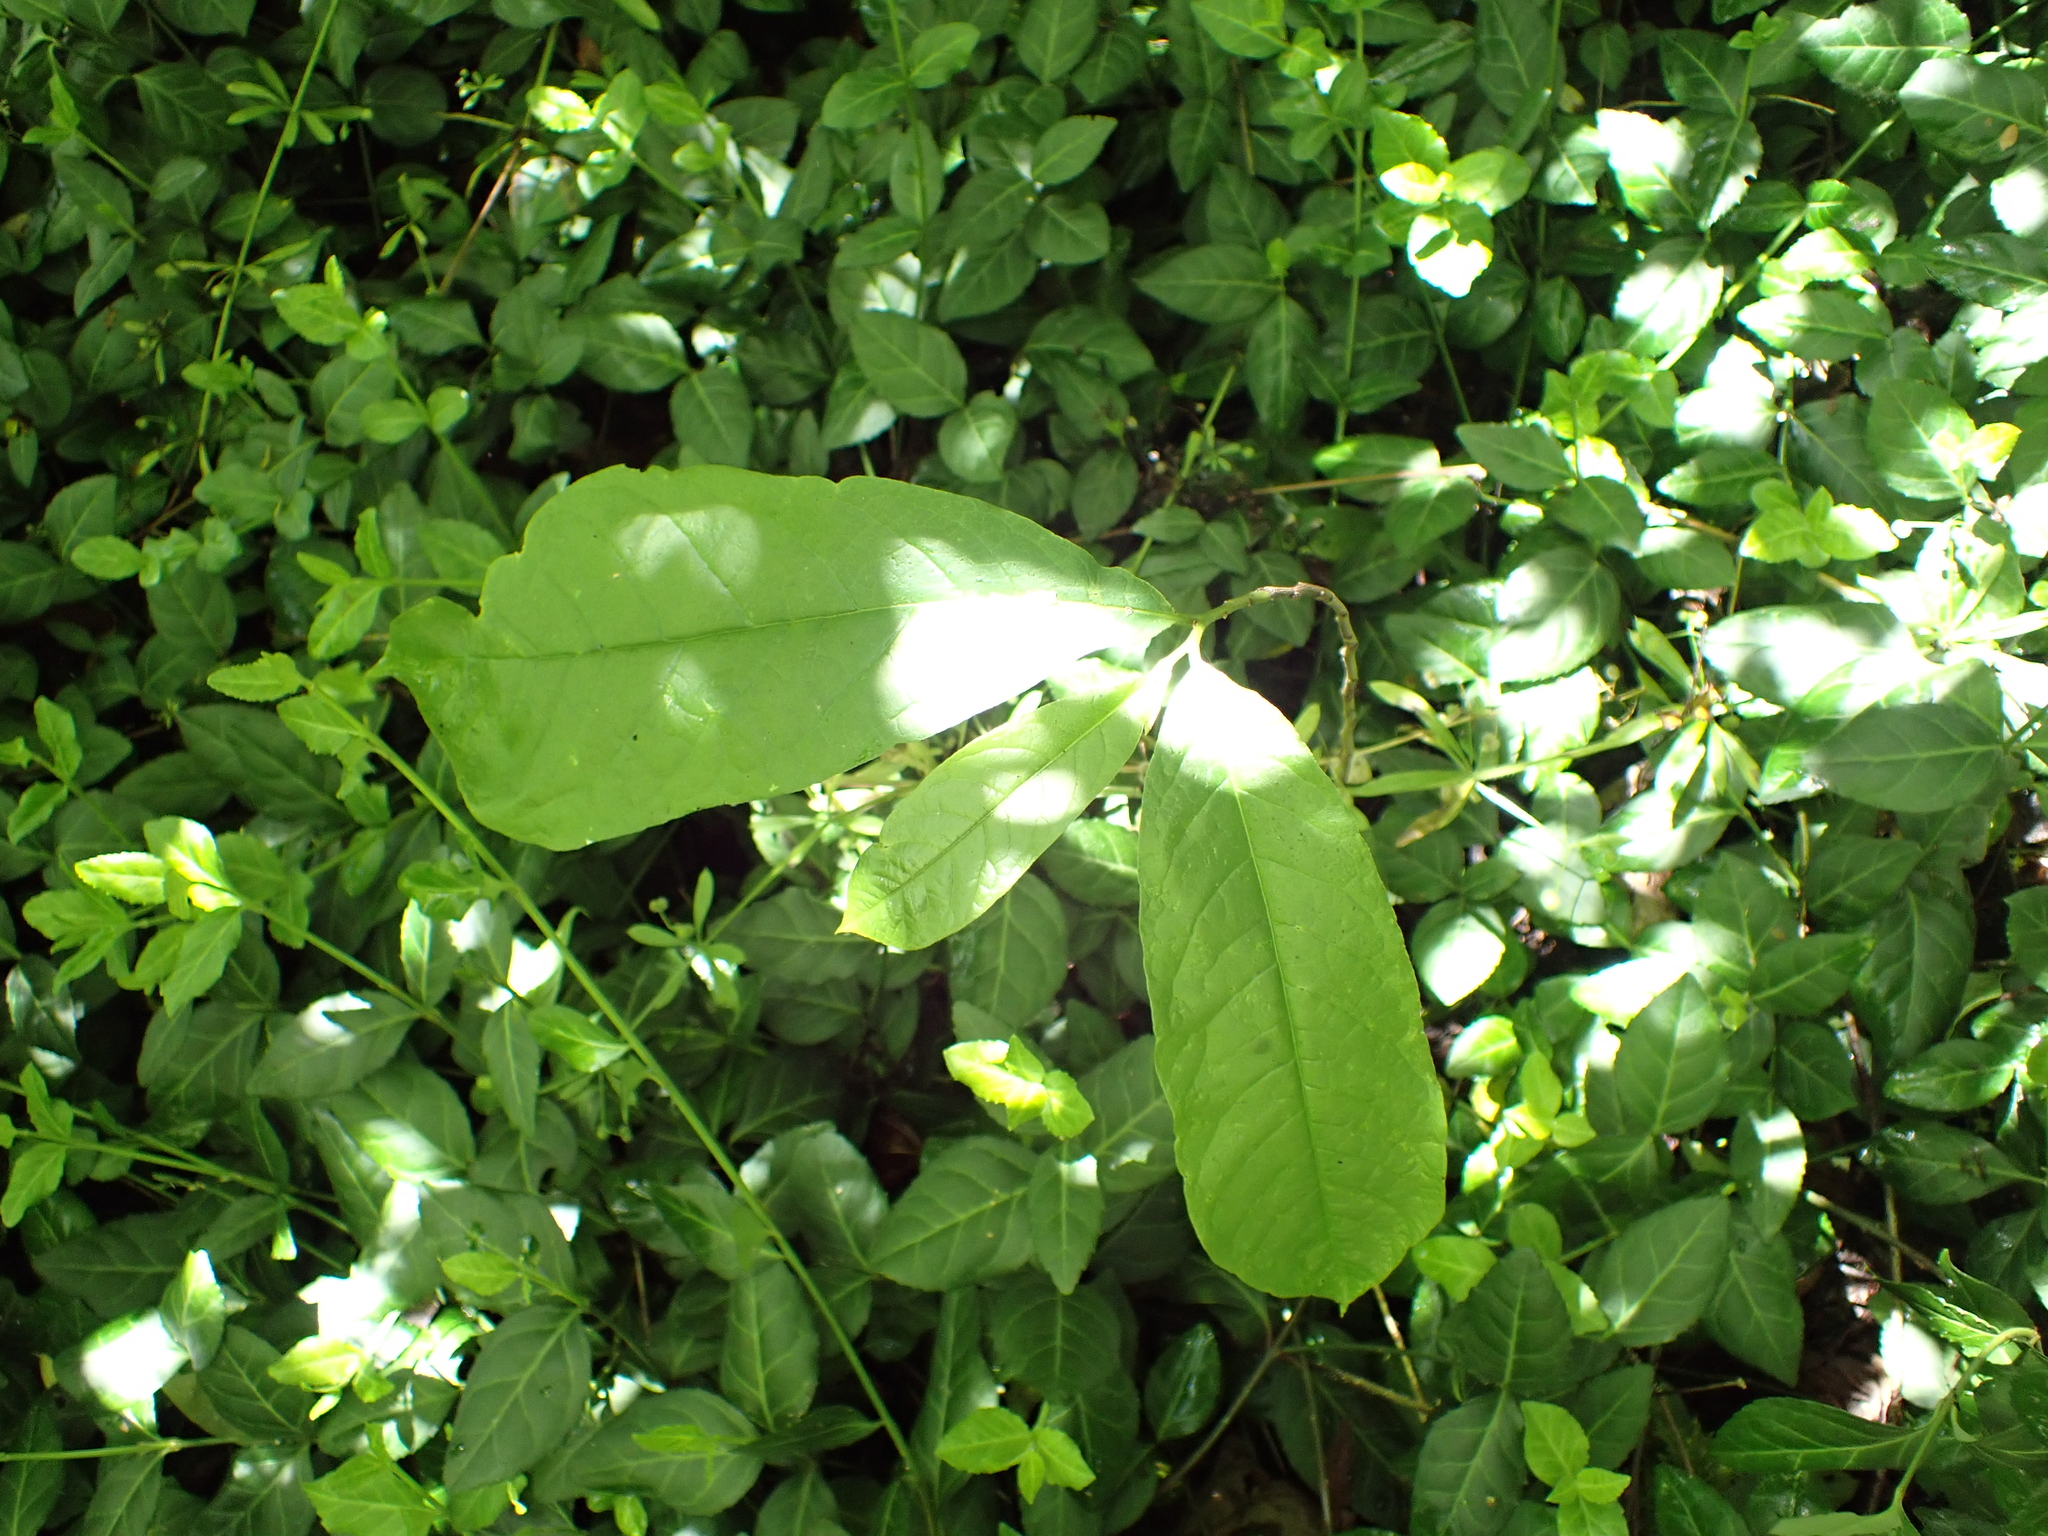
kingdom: Plantae
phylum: Tracheophyta
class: Magnoliopsida
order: Magnoliales
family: Annonaceae
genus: Asimina
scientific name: Asimina triloba
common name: Dog-banana
